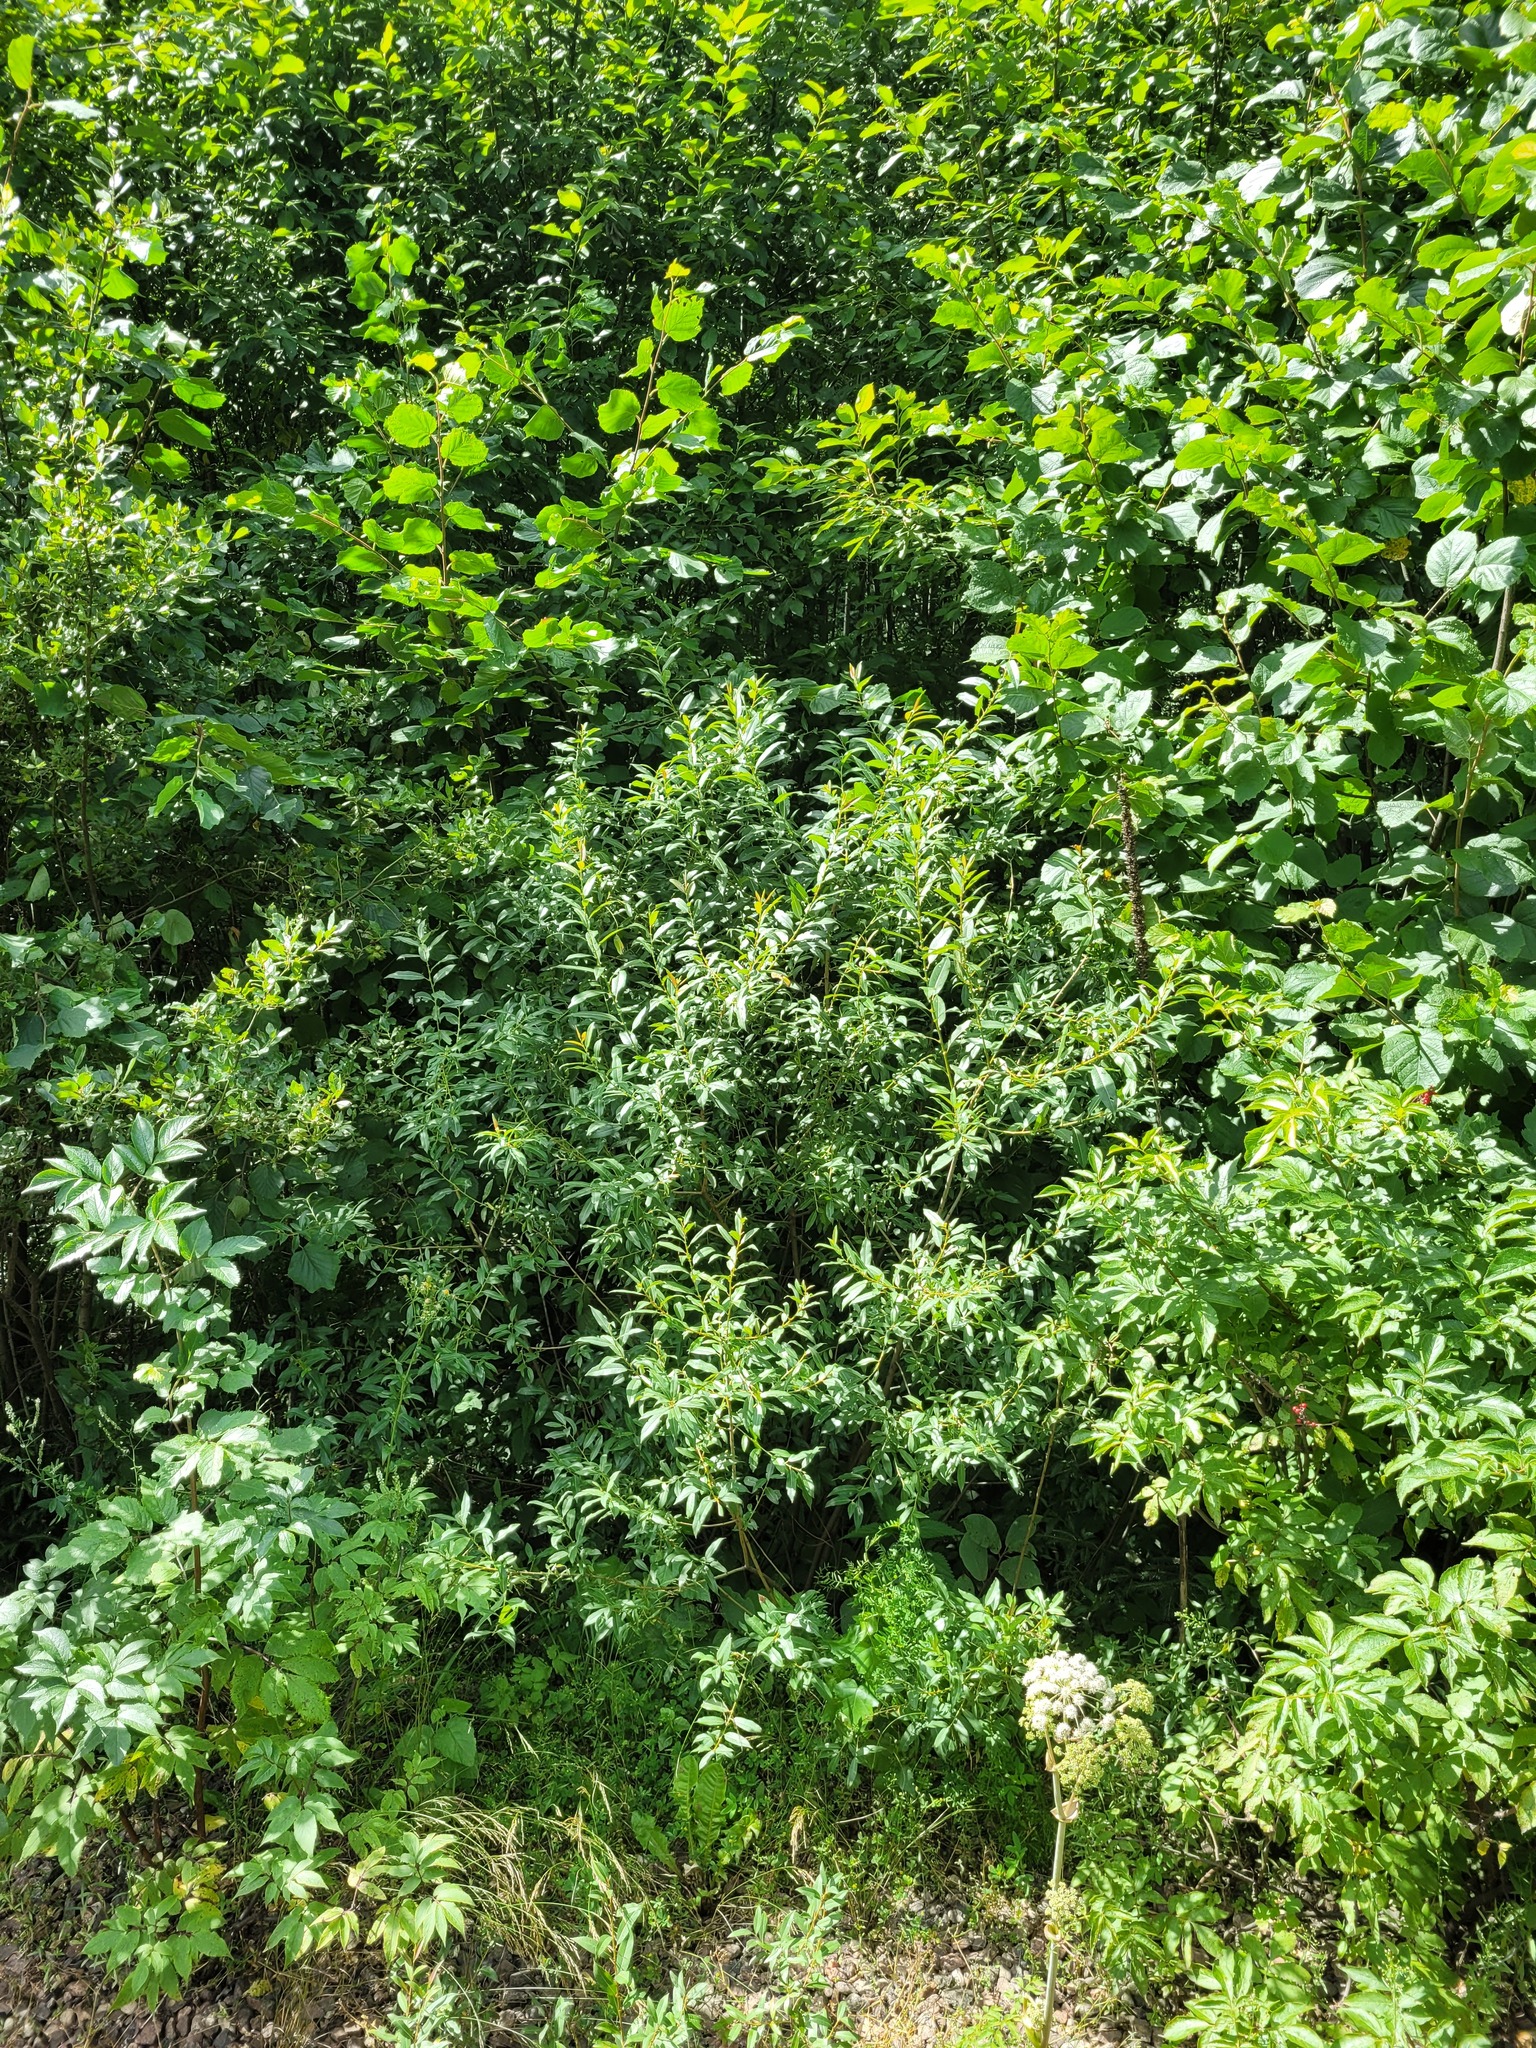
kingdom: Plantae
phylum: Tracheophyta
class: Magnoliopsida
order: Malpighiales
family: Salicaceae
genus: Salix
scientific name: Salix triandra
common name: Almond willow
